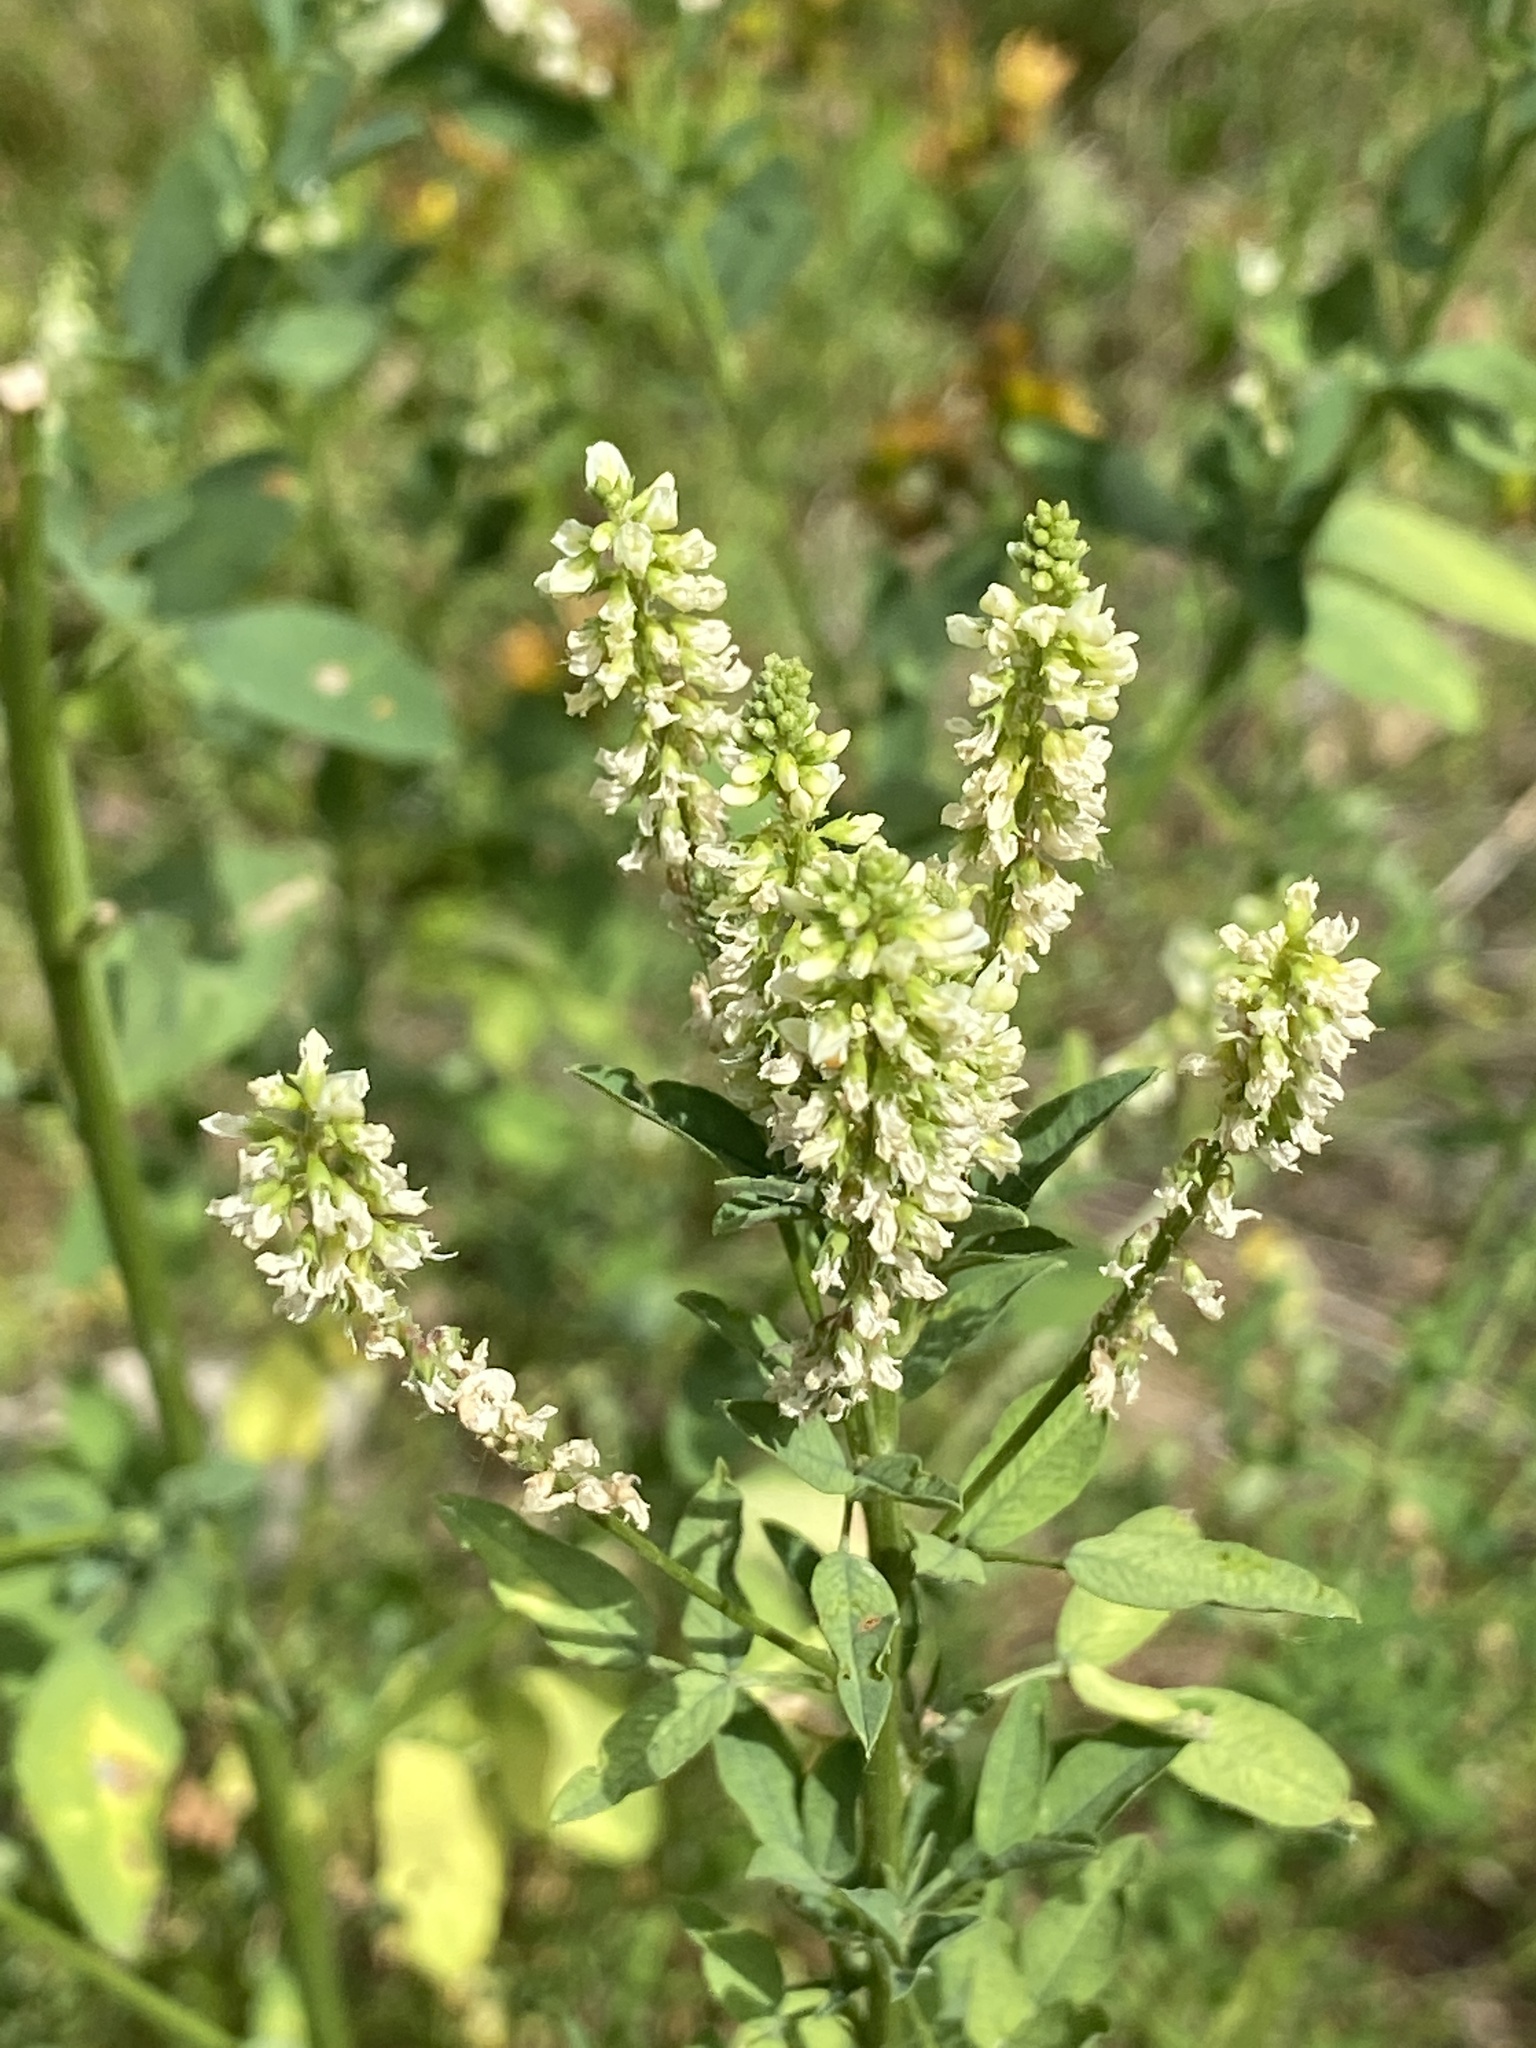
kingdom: Plantae
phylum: Tracheophyta
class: Magnoliopsida
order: Fabales
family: Fabaceae
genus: Melilotus
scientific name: Melilotus albus
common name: White melilot
